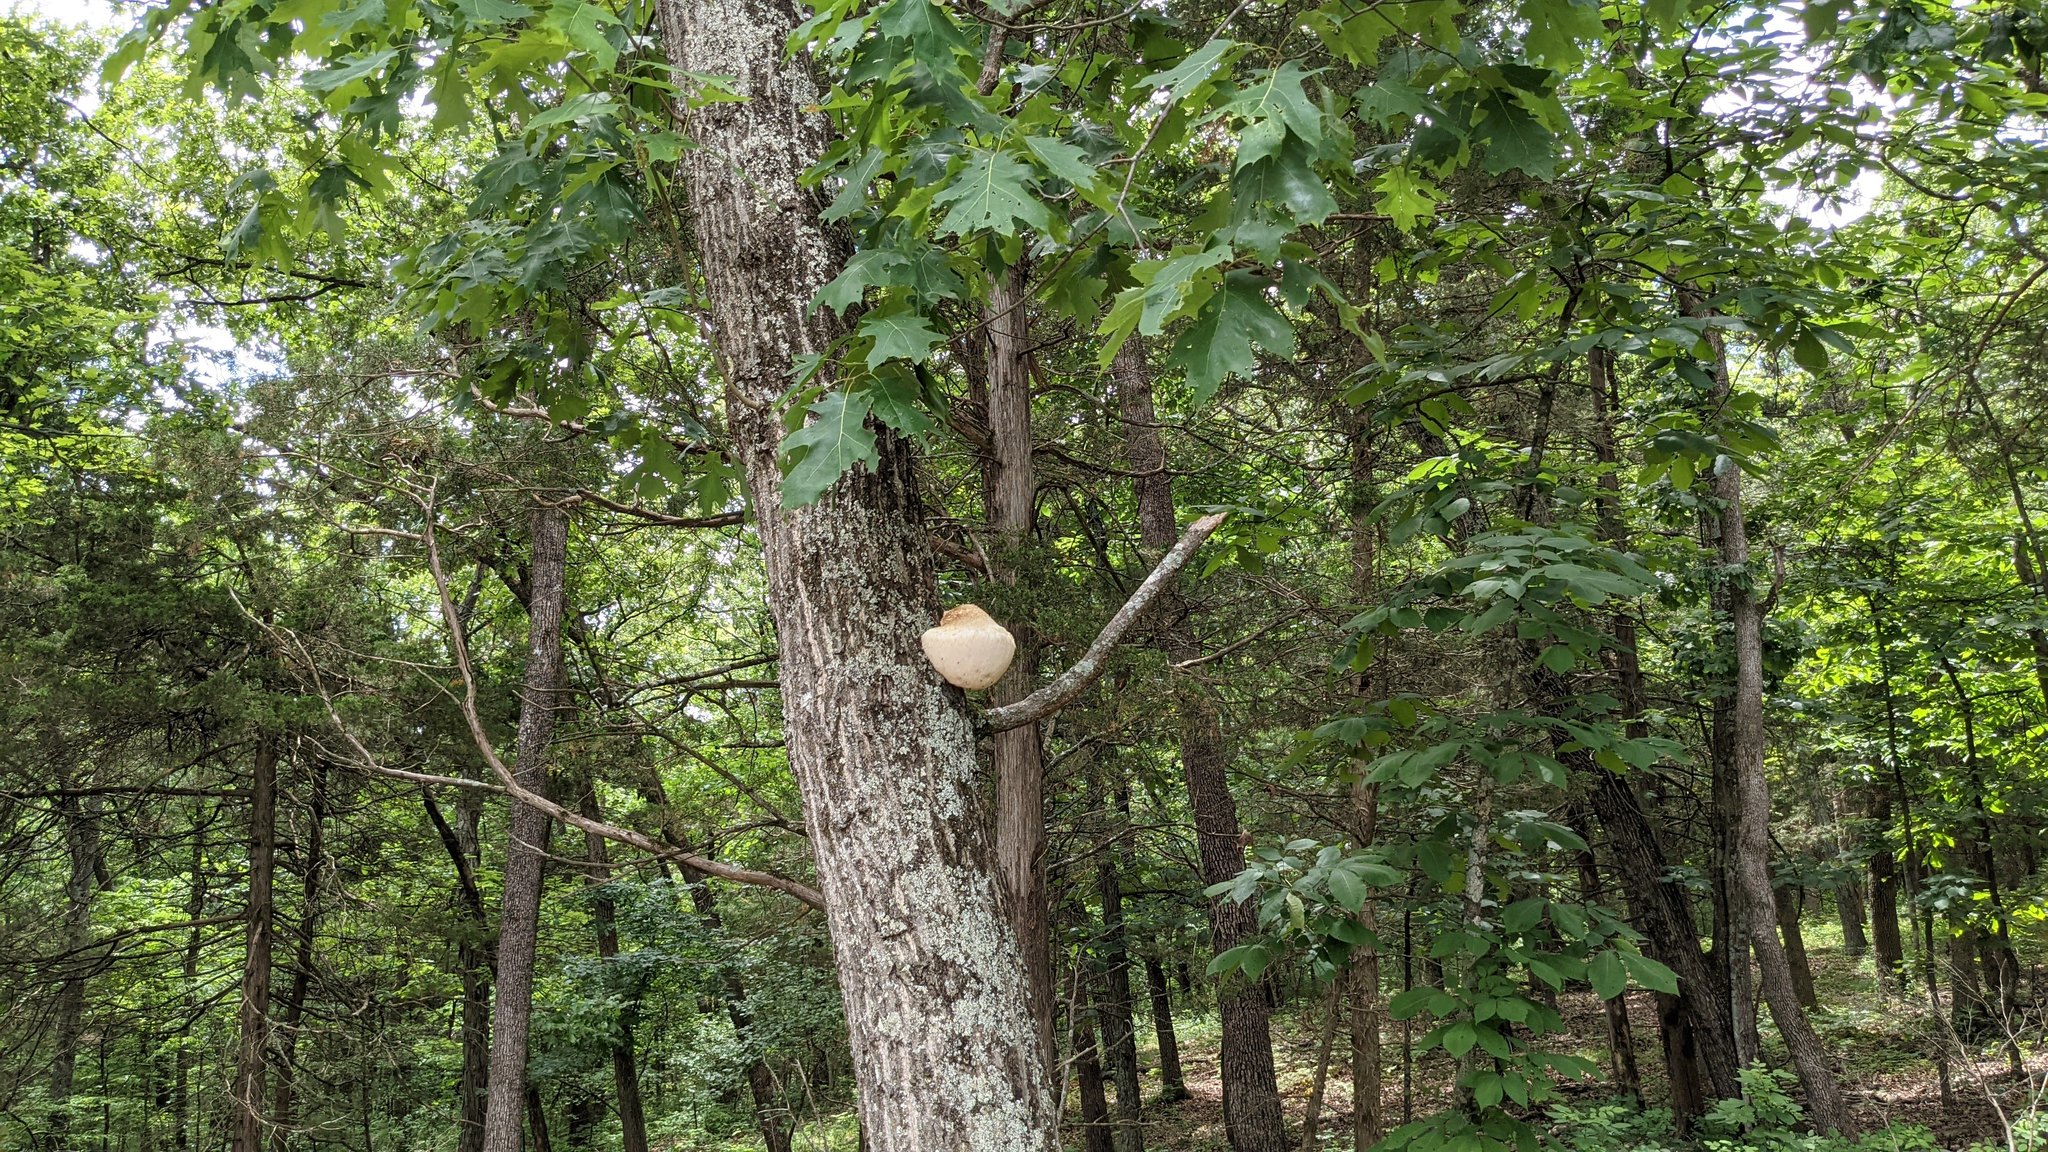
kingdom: Fungi
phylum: Basidiomycota
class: Agaricomycetes
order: Russulales
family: Hericiaceae
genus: Hericium
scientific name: Hericium erinaceus
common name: Bearded tooth
